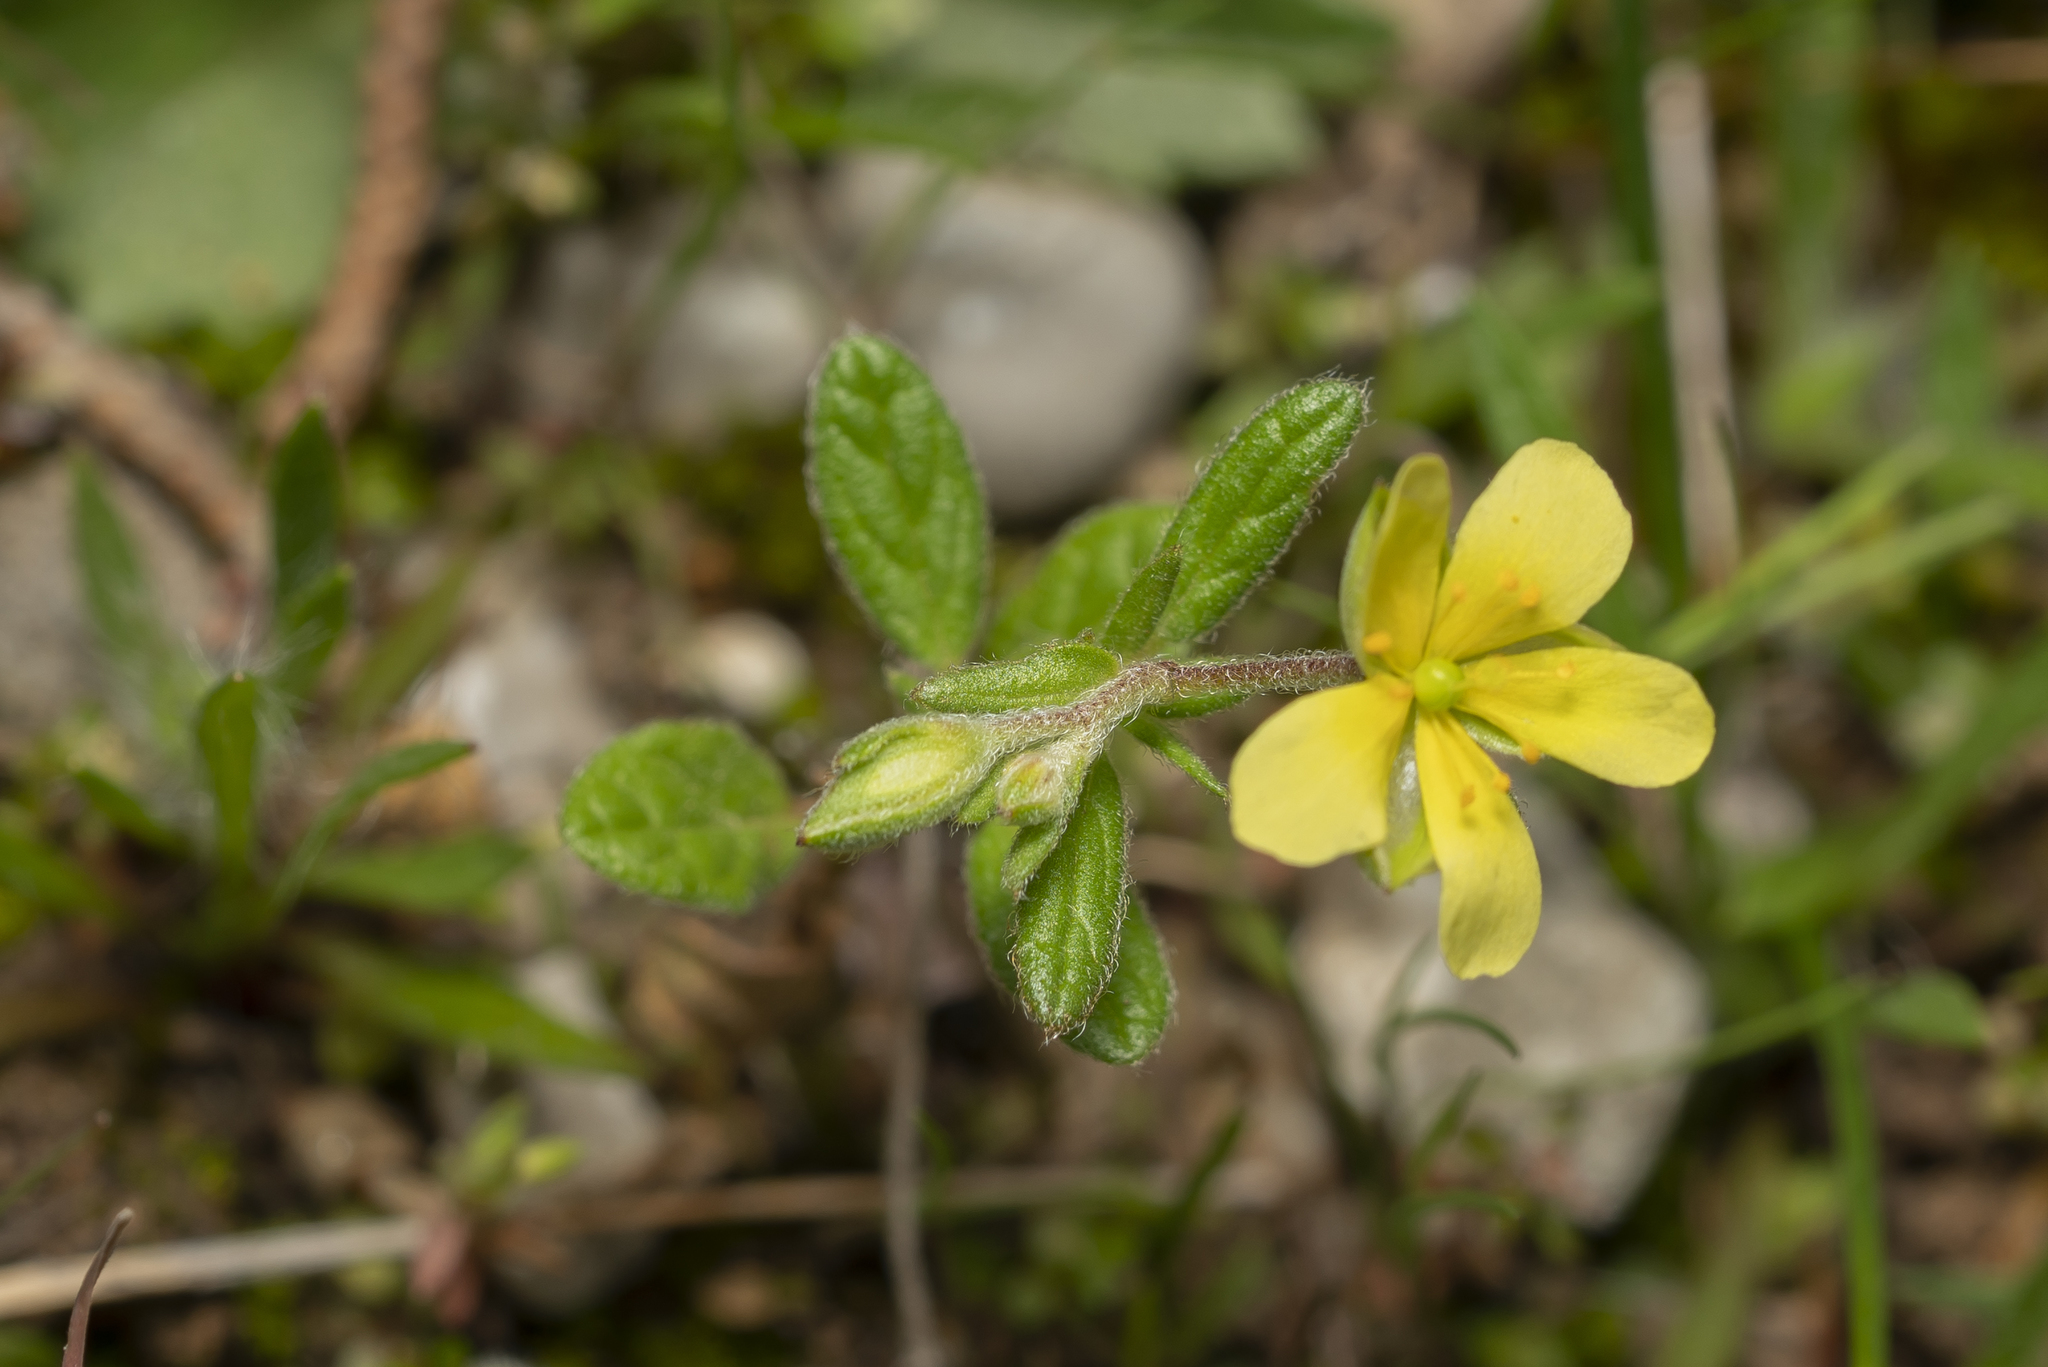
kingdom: Plantae
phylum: Tracheophyta
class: Magnoliopsida
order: Malvales
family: Cistaceae
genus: Helianthemum
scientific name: Helianthemum salicifolium
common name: Willowleaf frostweed
